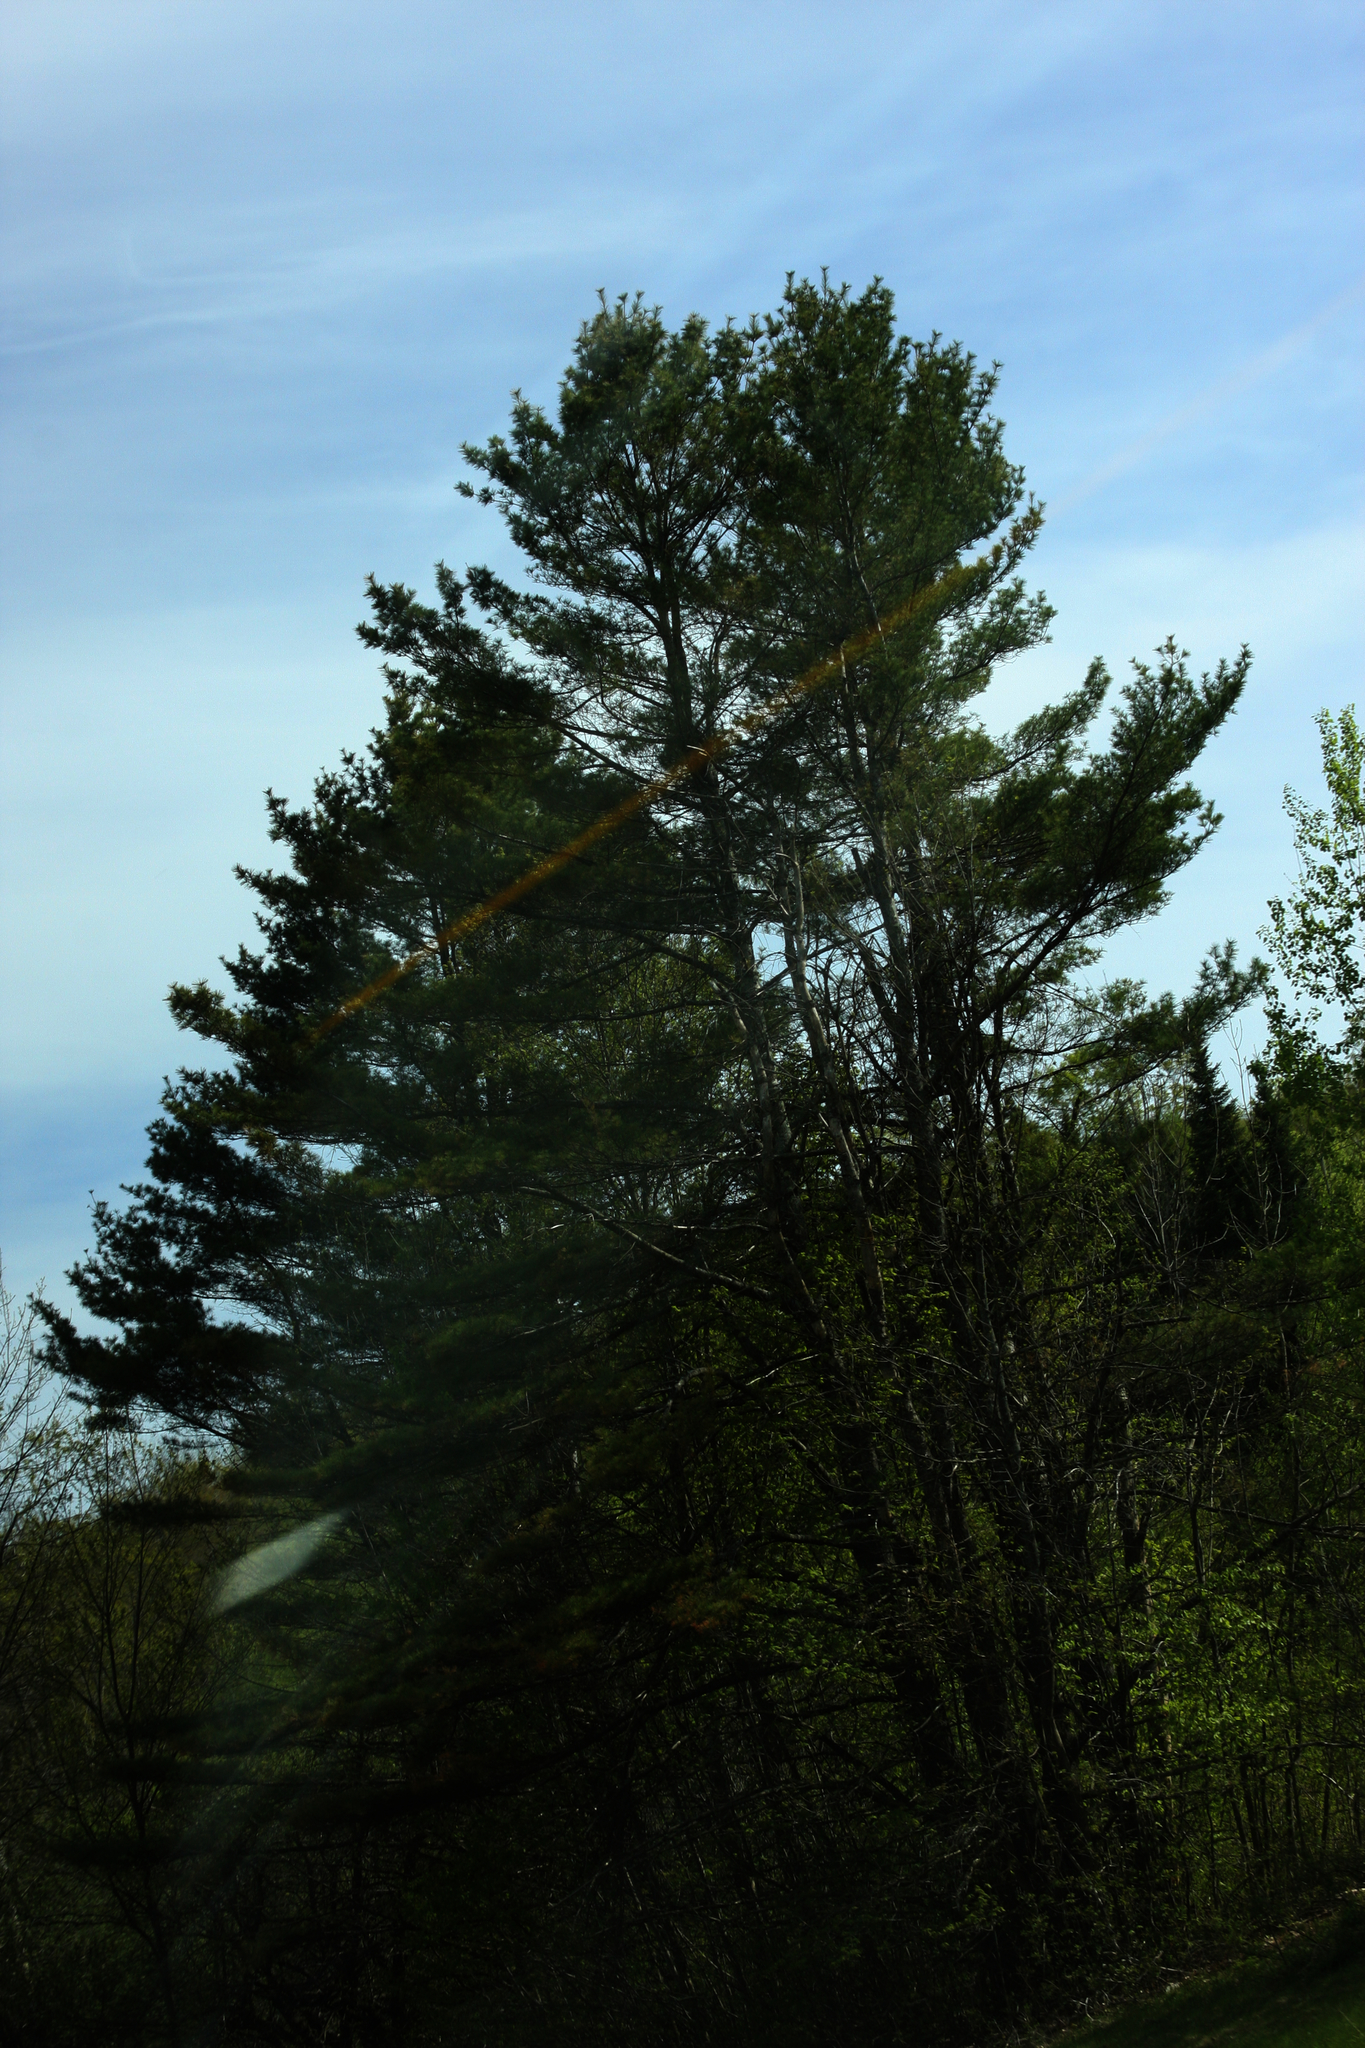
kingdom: Plantae
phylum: Tracheophyta
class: Pinopsida
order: Pinales
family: Pinaceae
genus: Pinus
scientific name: Pinus strobus
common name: Weymouth pine
